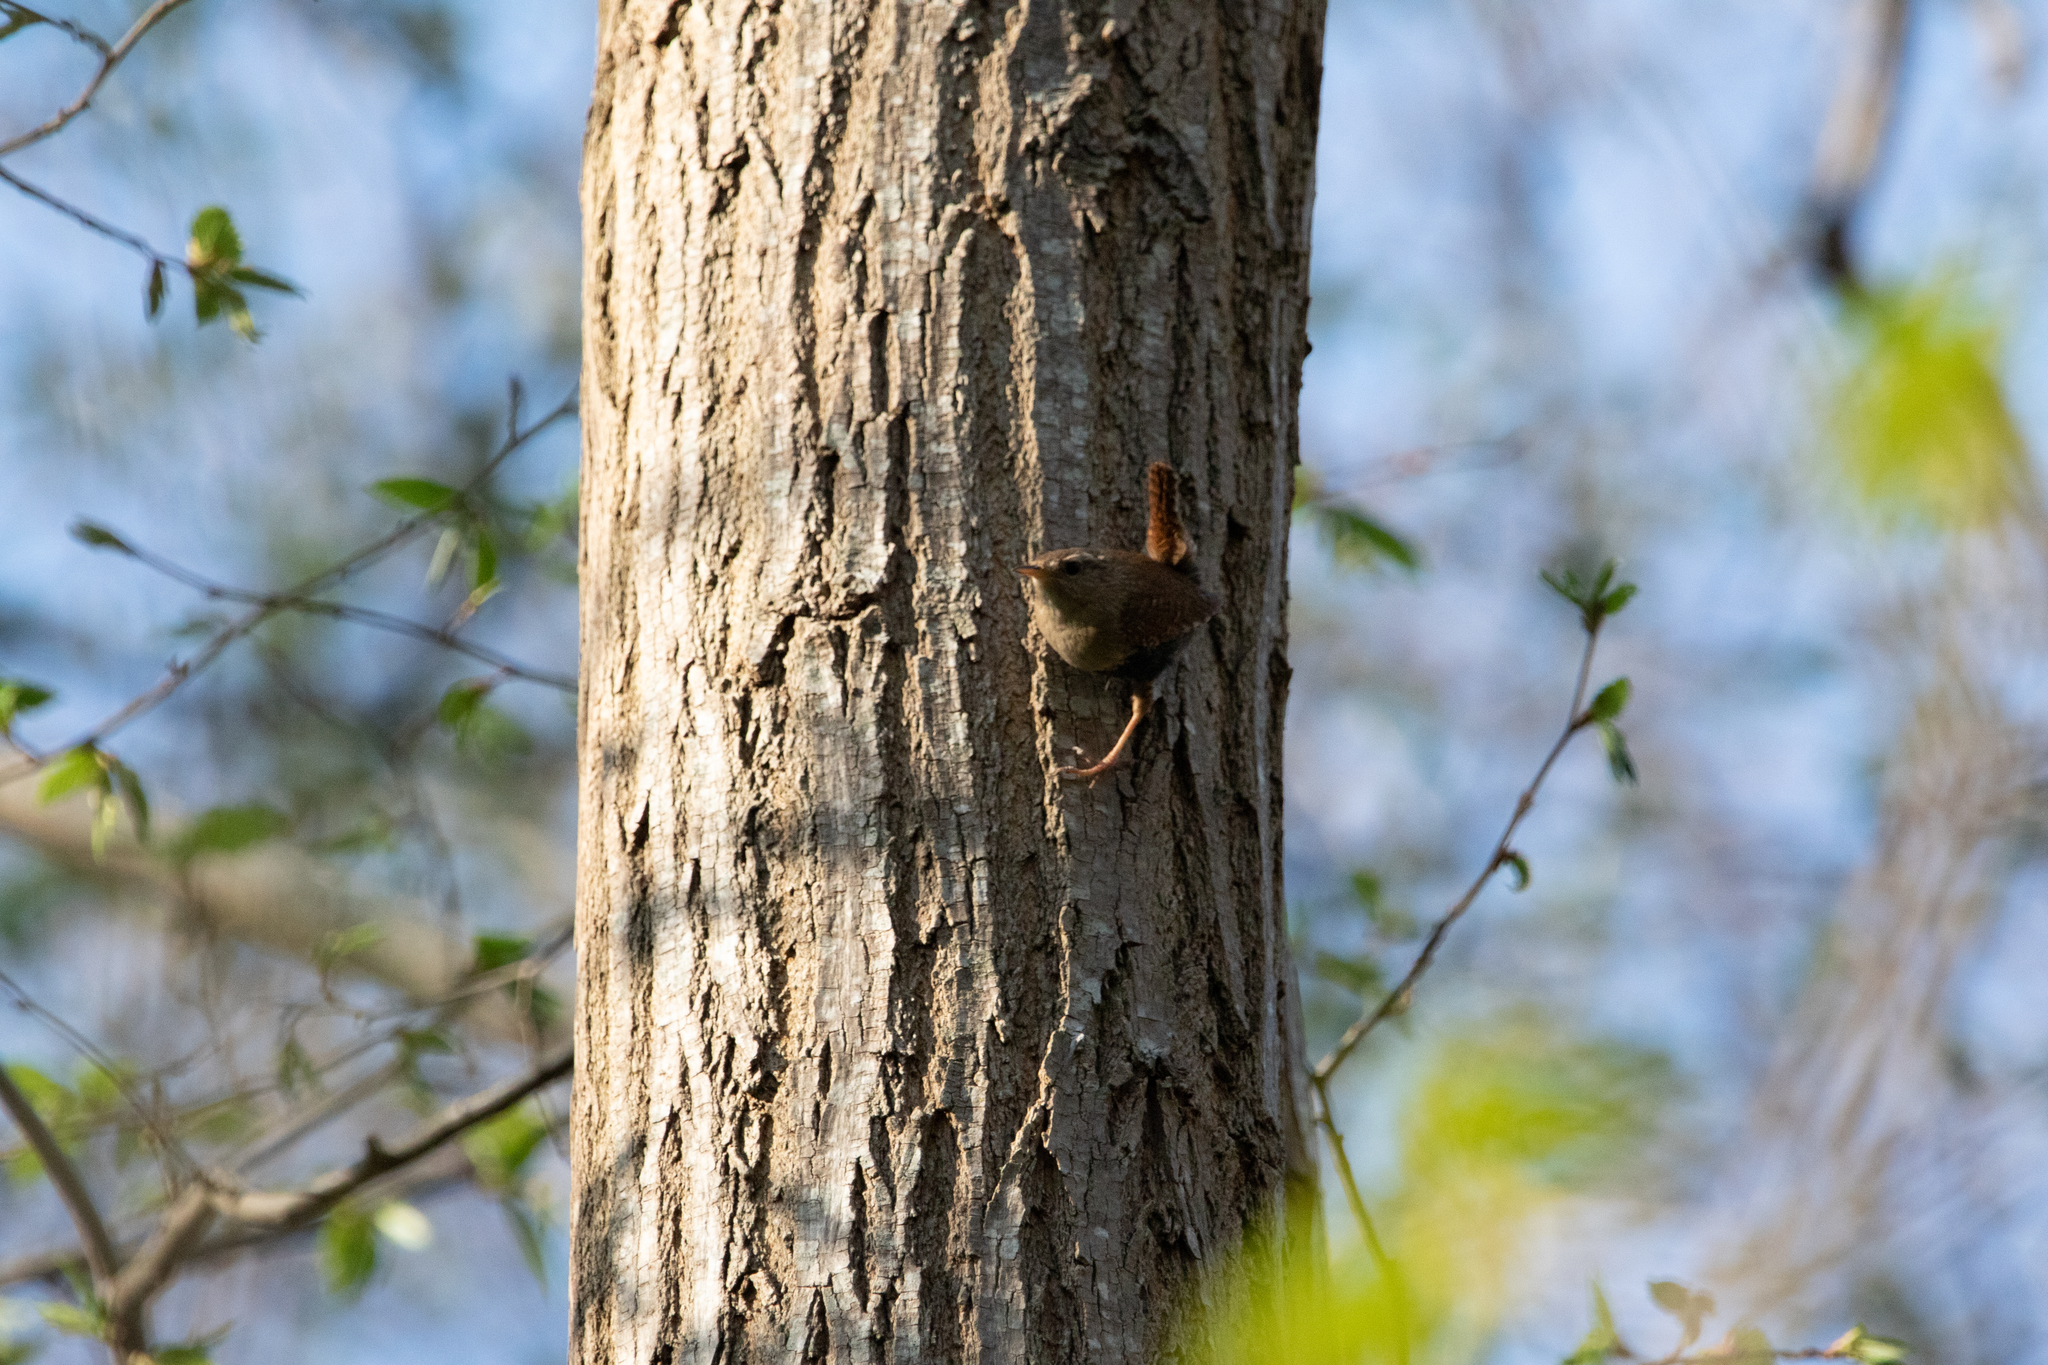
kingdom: Animalia
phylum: Chordata
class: Aves
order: Passeriformes
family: Troglodytidae
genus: Troglodytes
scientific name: Troglodytes troglodytes
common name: Eurasian wren
